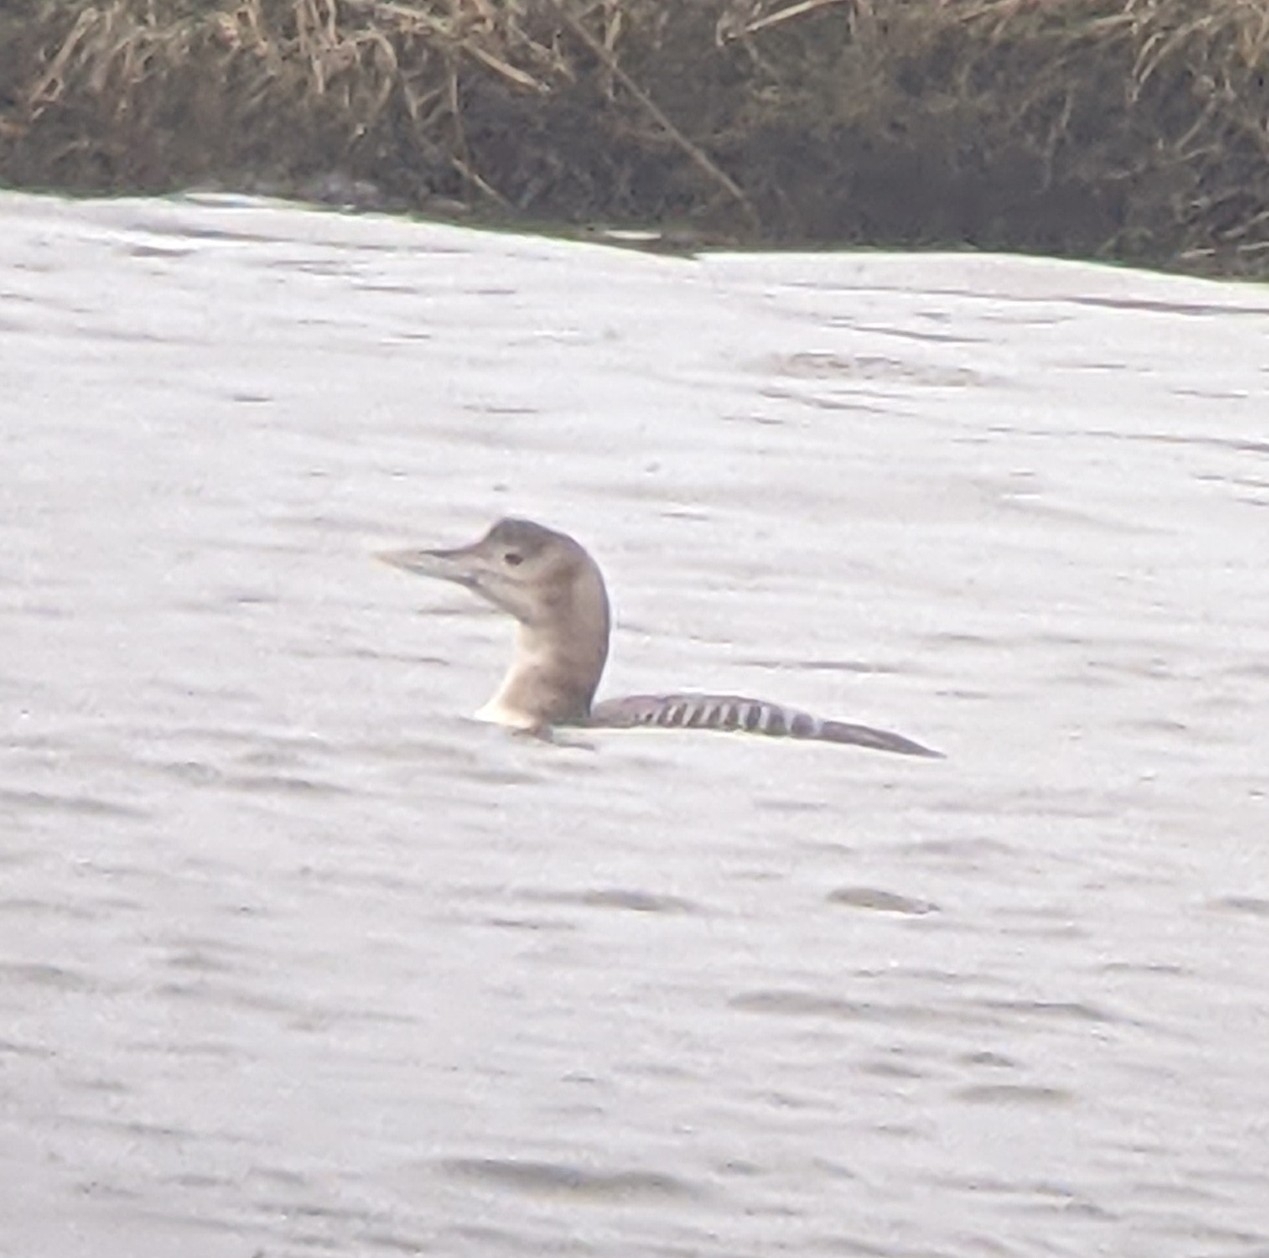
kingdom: Animalia
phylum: Chordata
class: Aves
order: Gaviiformes
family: Gaviidae
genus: Gavia
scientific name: Gavia adamsii
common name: Yellow-billed loon
